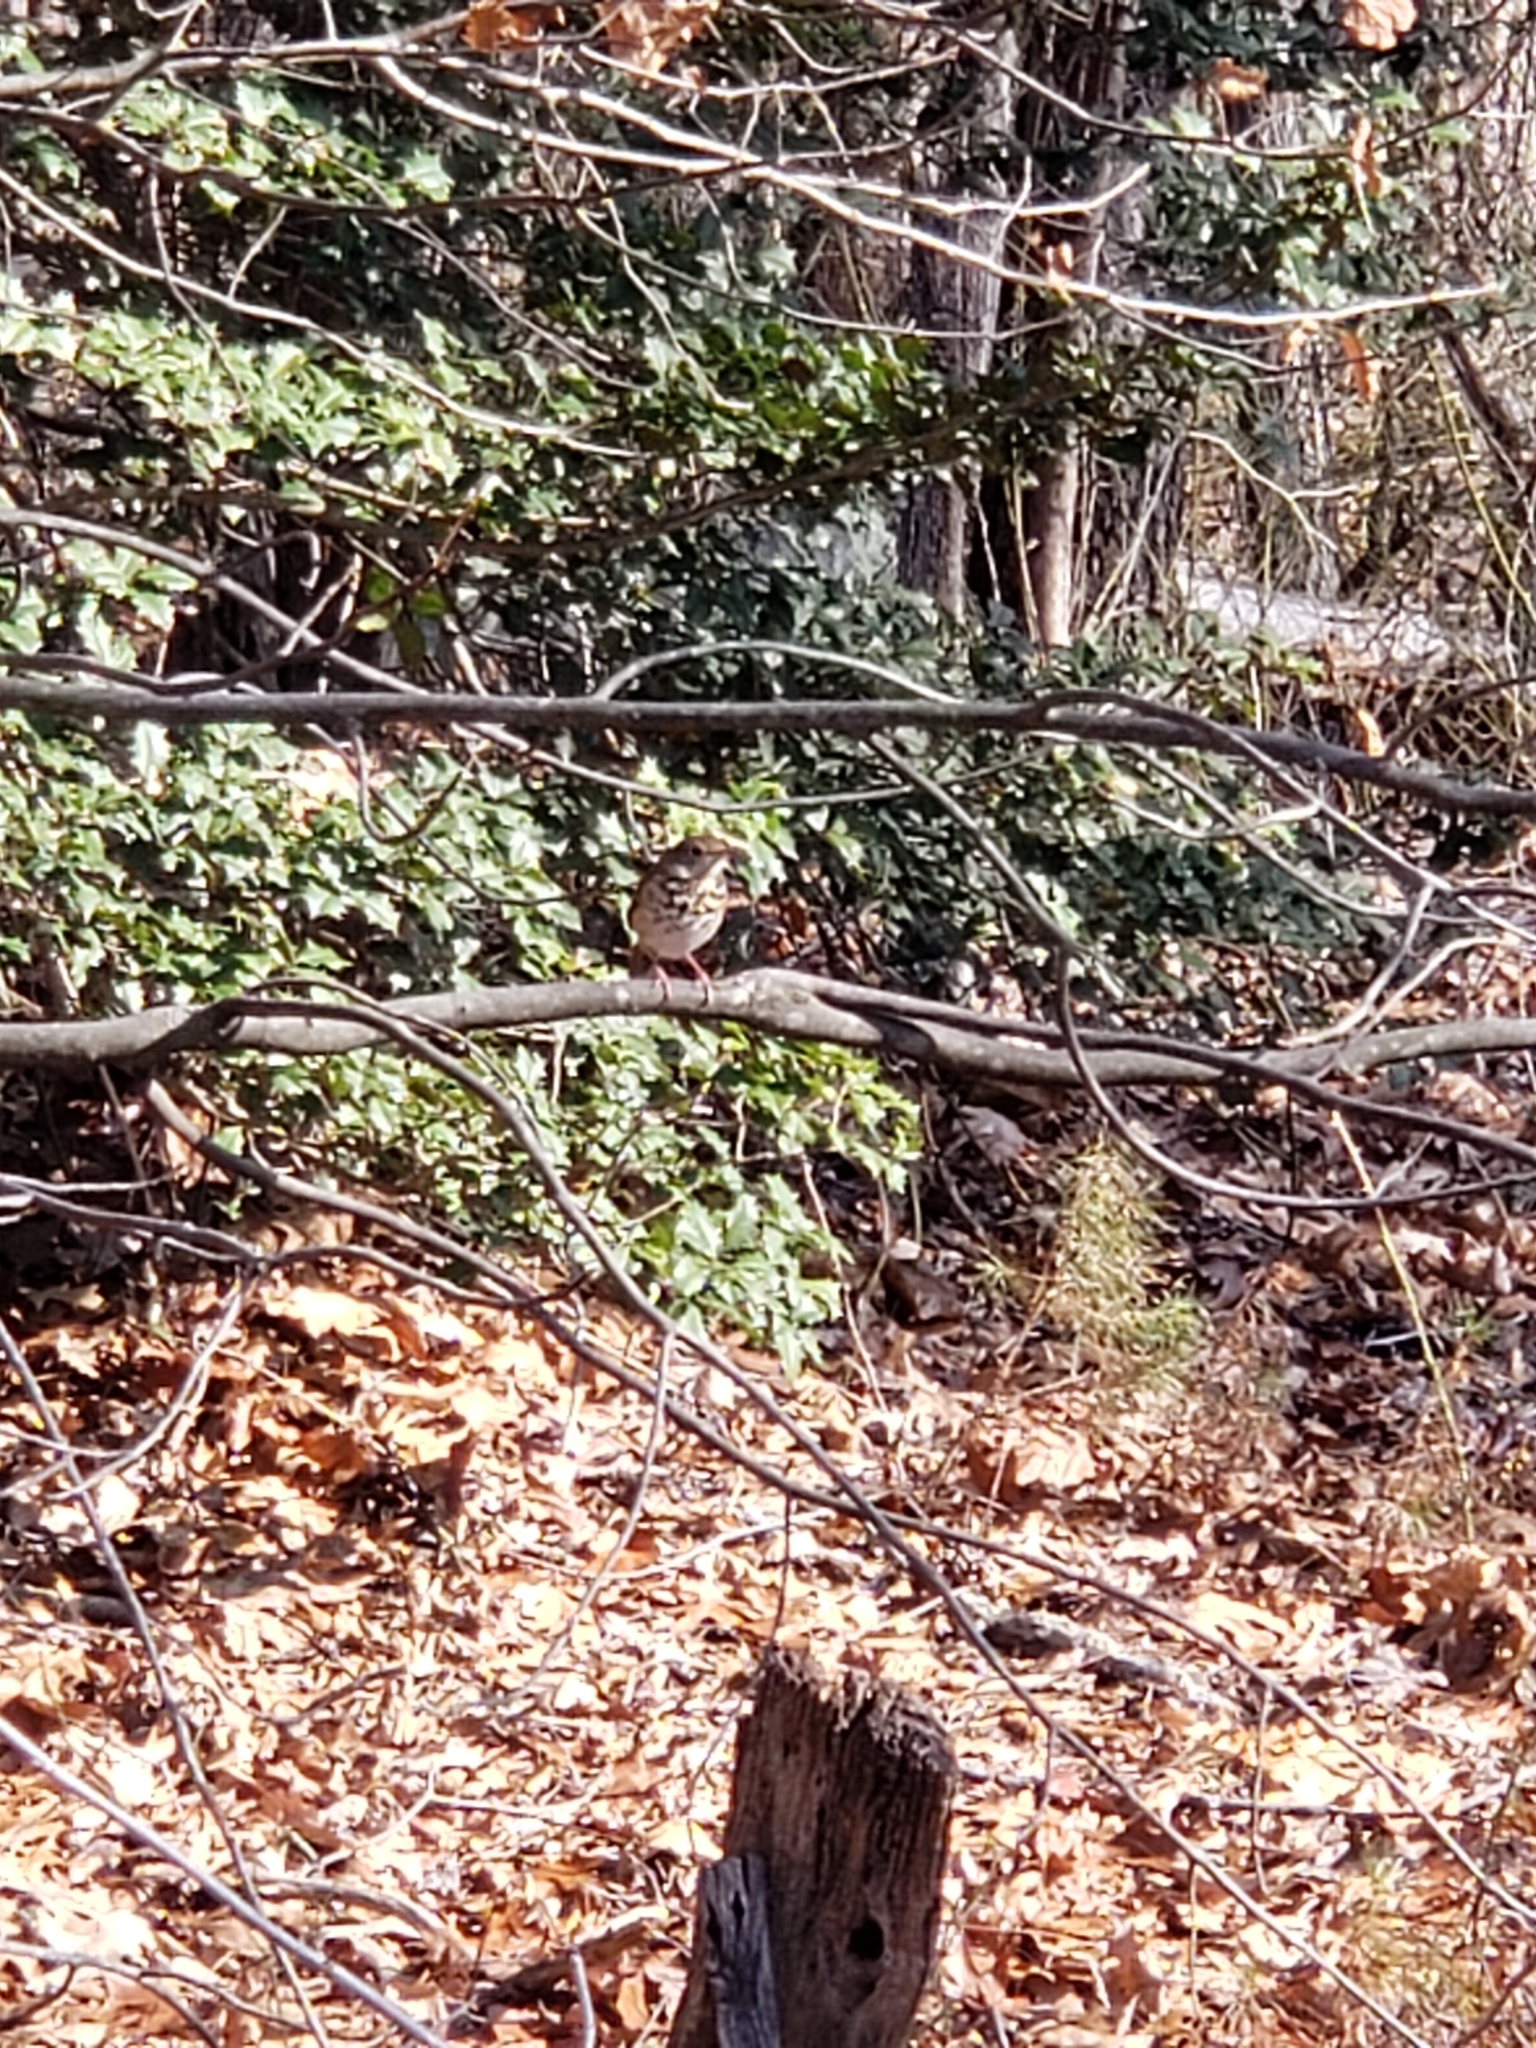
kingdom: Animalia
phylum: Chordata
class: Aves
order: Passeriformes
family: Turdidae
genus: Catharus
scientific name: Catharus guttatus
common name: Hermit thrush
